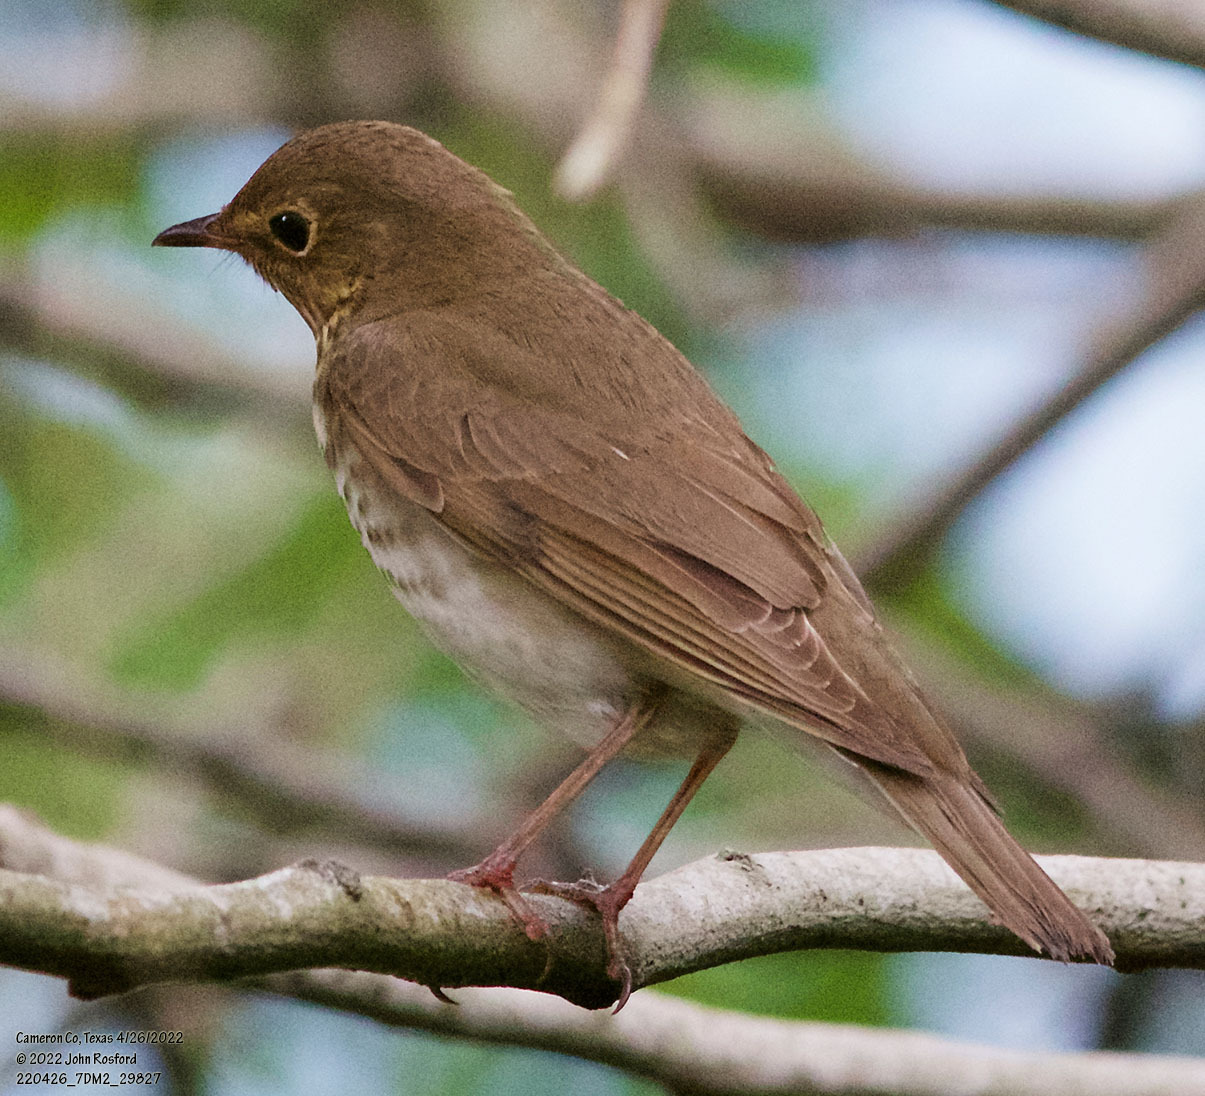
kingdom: Animalia
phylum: Chordata
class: Aves
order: Passeriformes
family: Turdidae
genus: Catharus
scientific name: Catharus ustulatus
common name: Swainson's thrush
